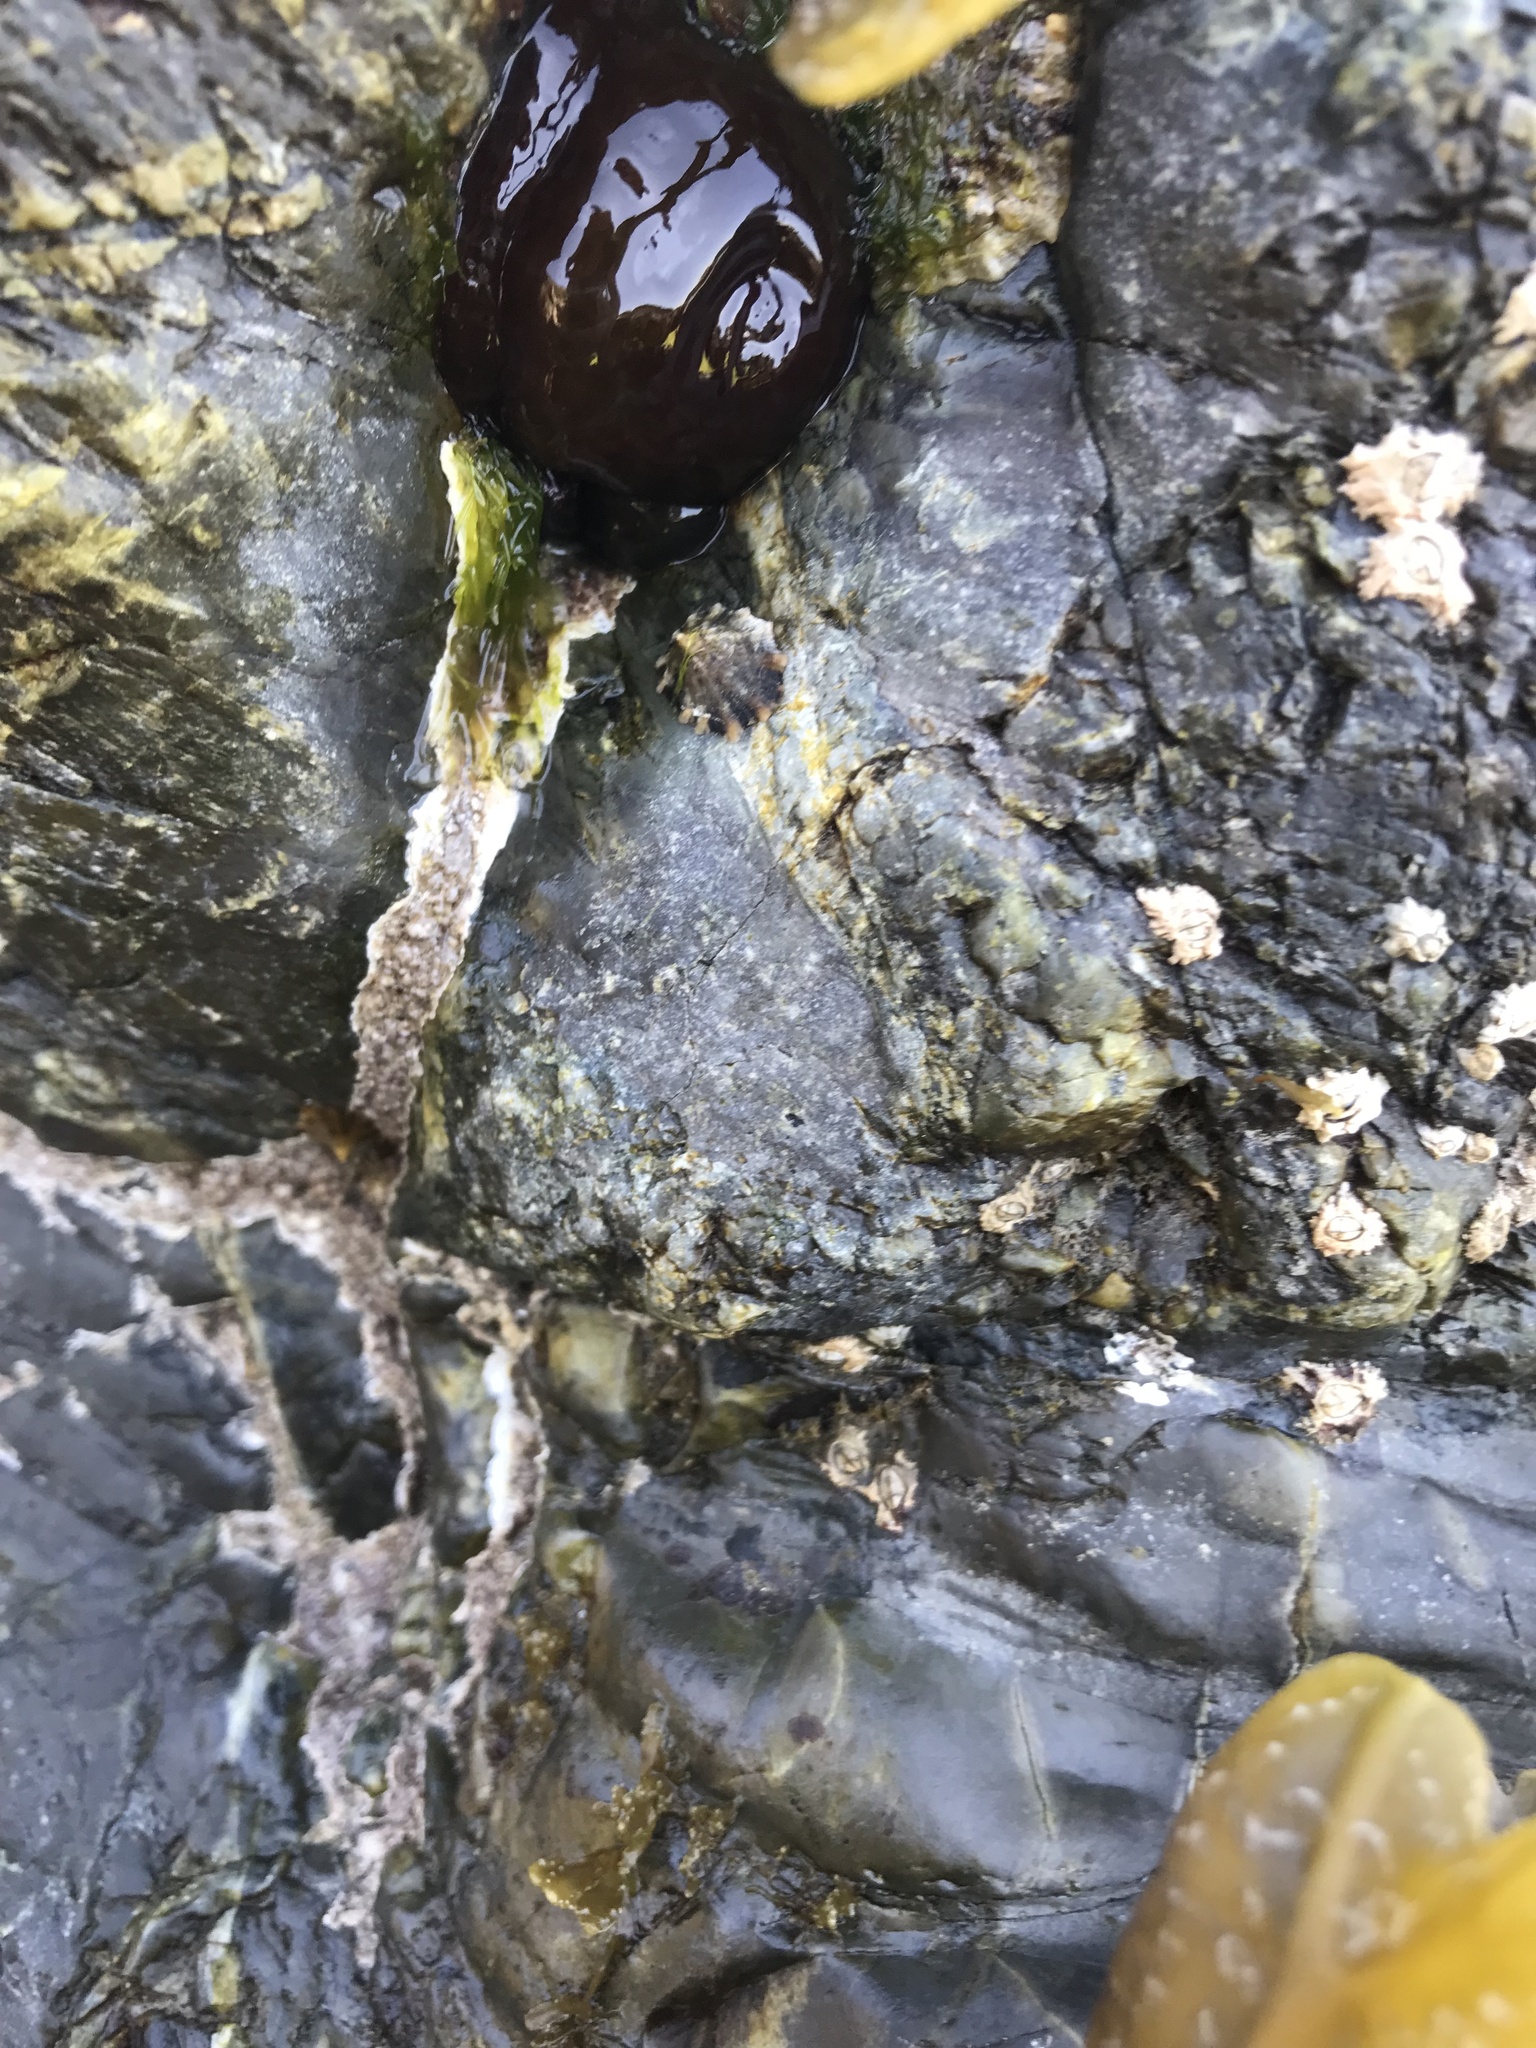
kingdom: Animalia
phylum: Cnidaria
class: Anthozoa
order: Actiniaria
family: Actiniidae
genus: Actinia
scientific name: Actinia equina
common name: Beadlet anemone
